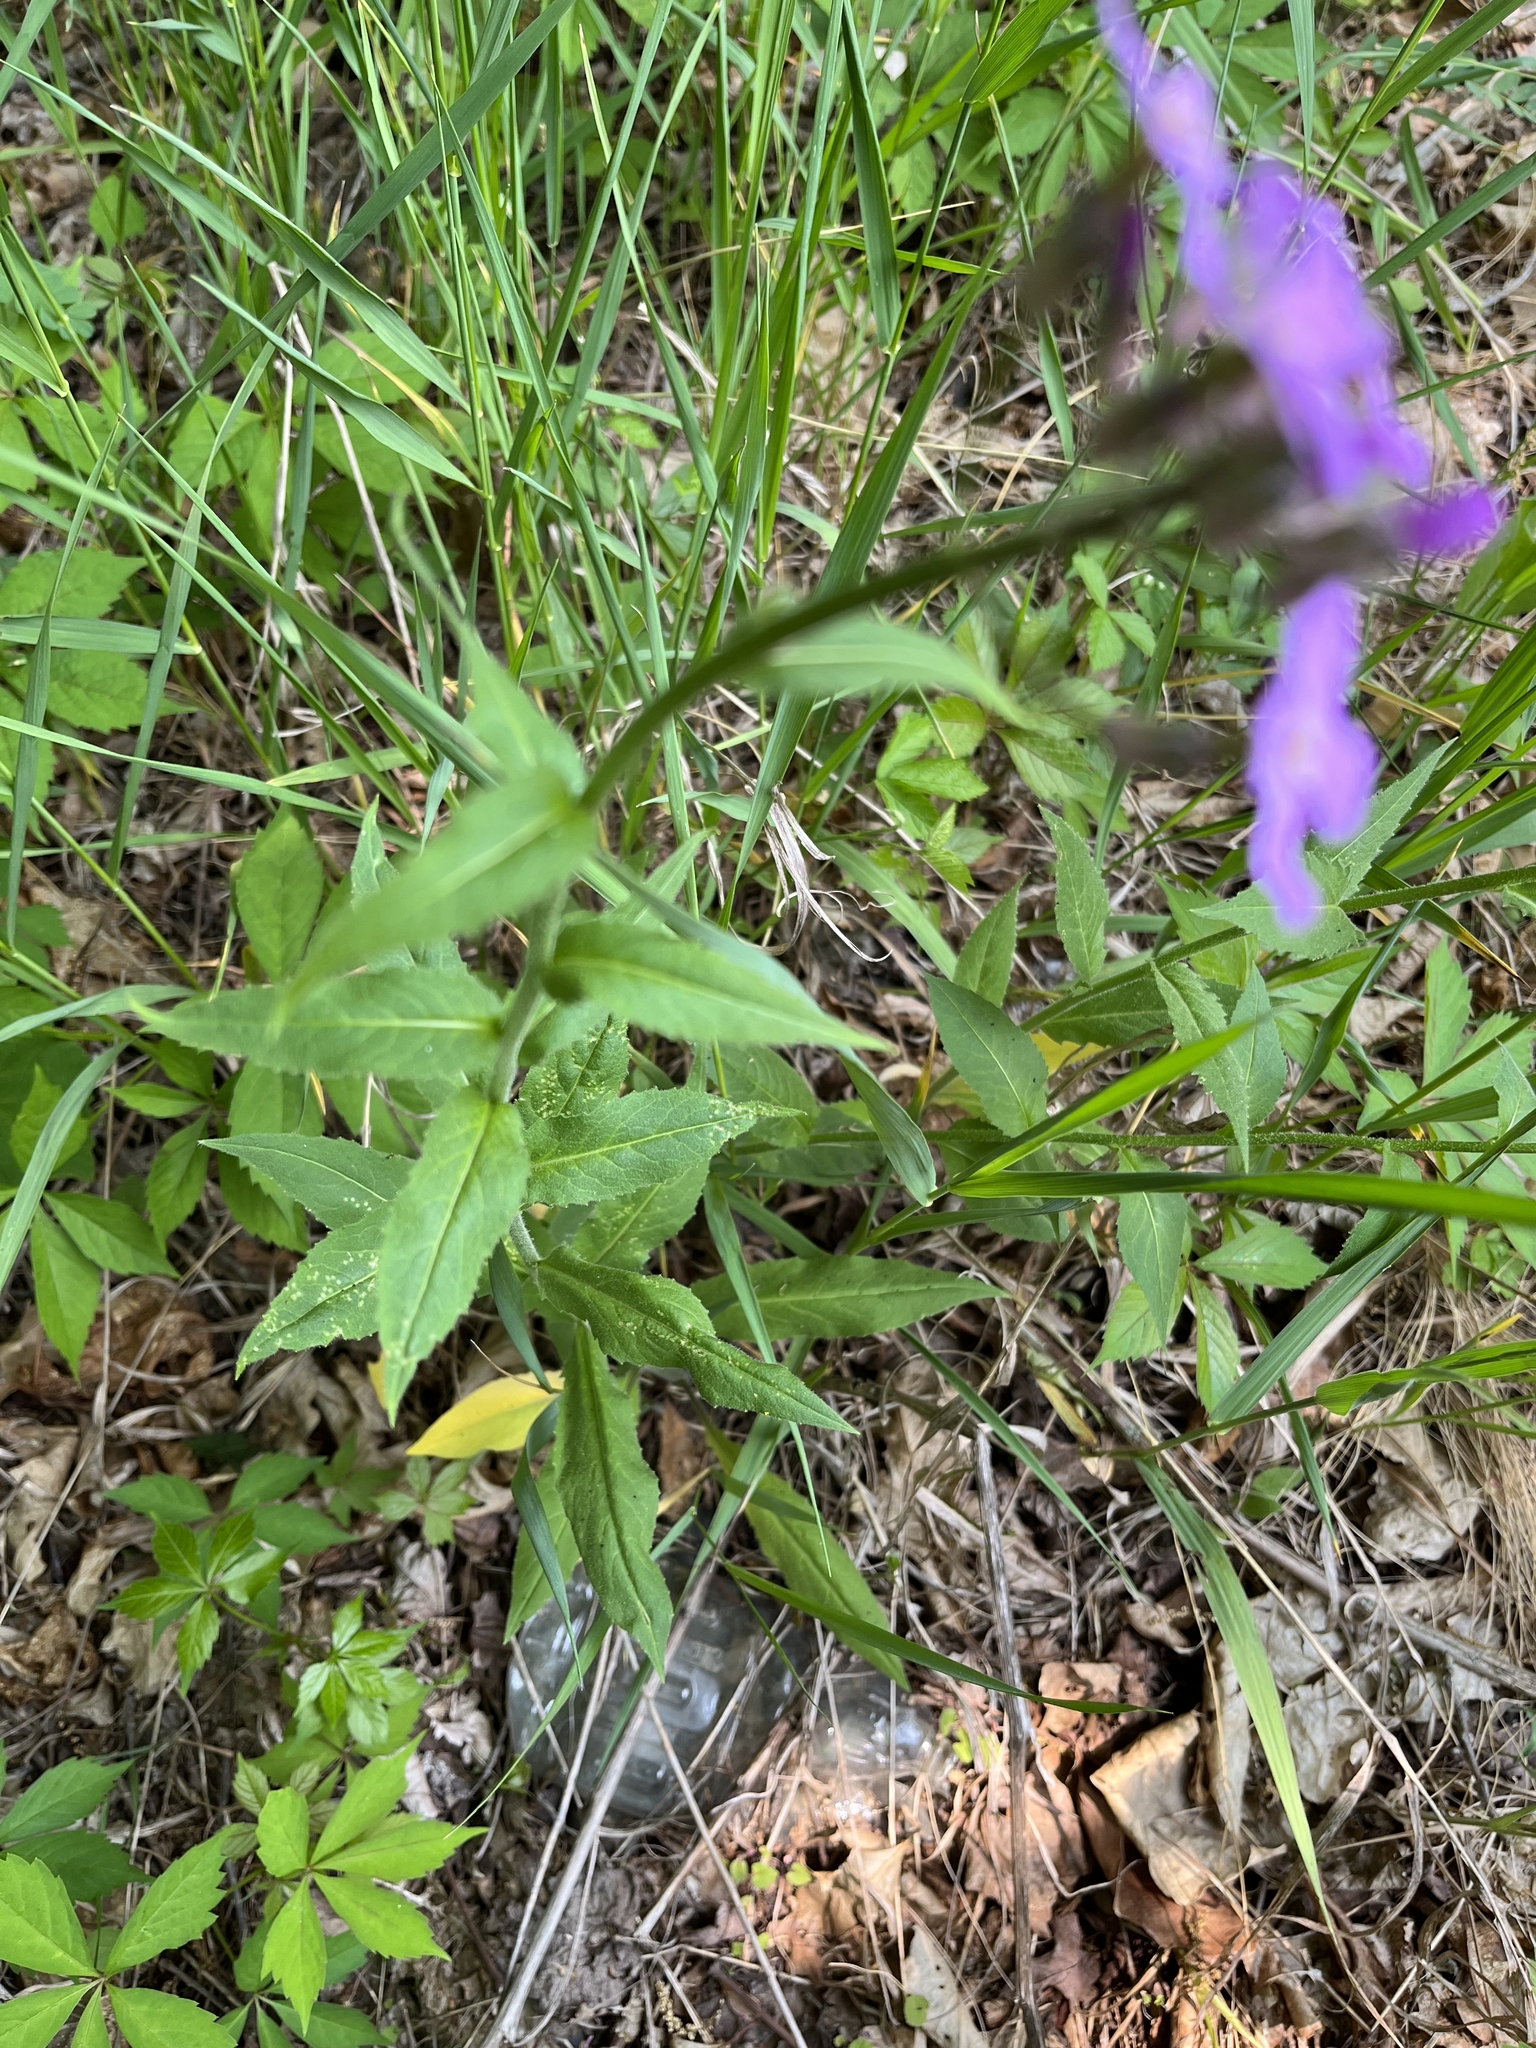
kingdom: Plantae
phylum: Tracheophyta
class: Magnoliopsida
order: Brassicales
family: Brassicaceae
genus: Hesperis
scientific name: Hesperis matronalis
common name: Dame's-violet
